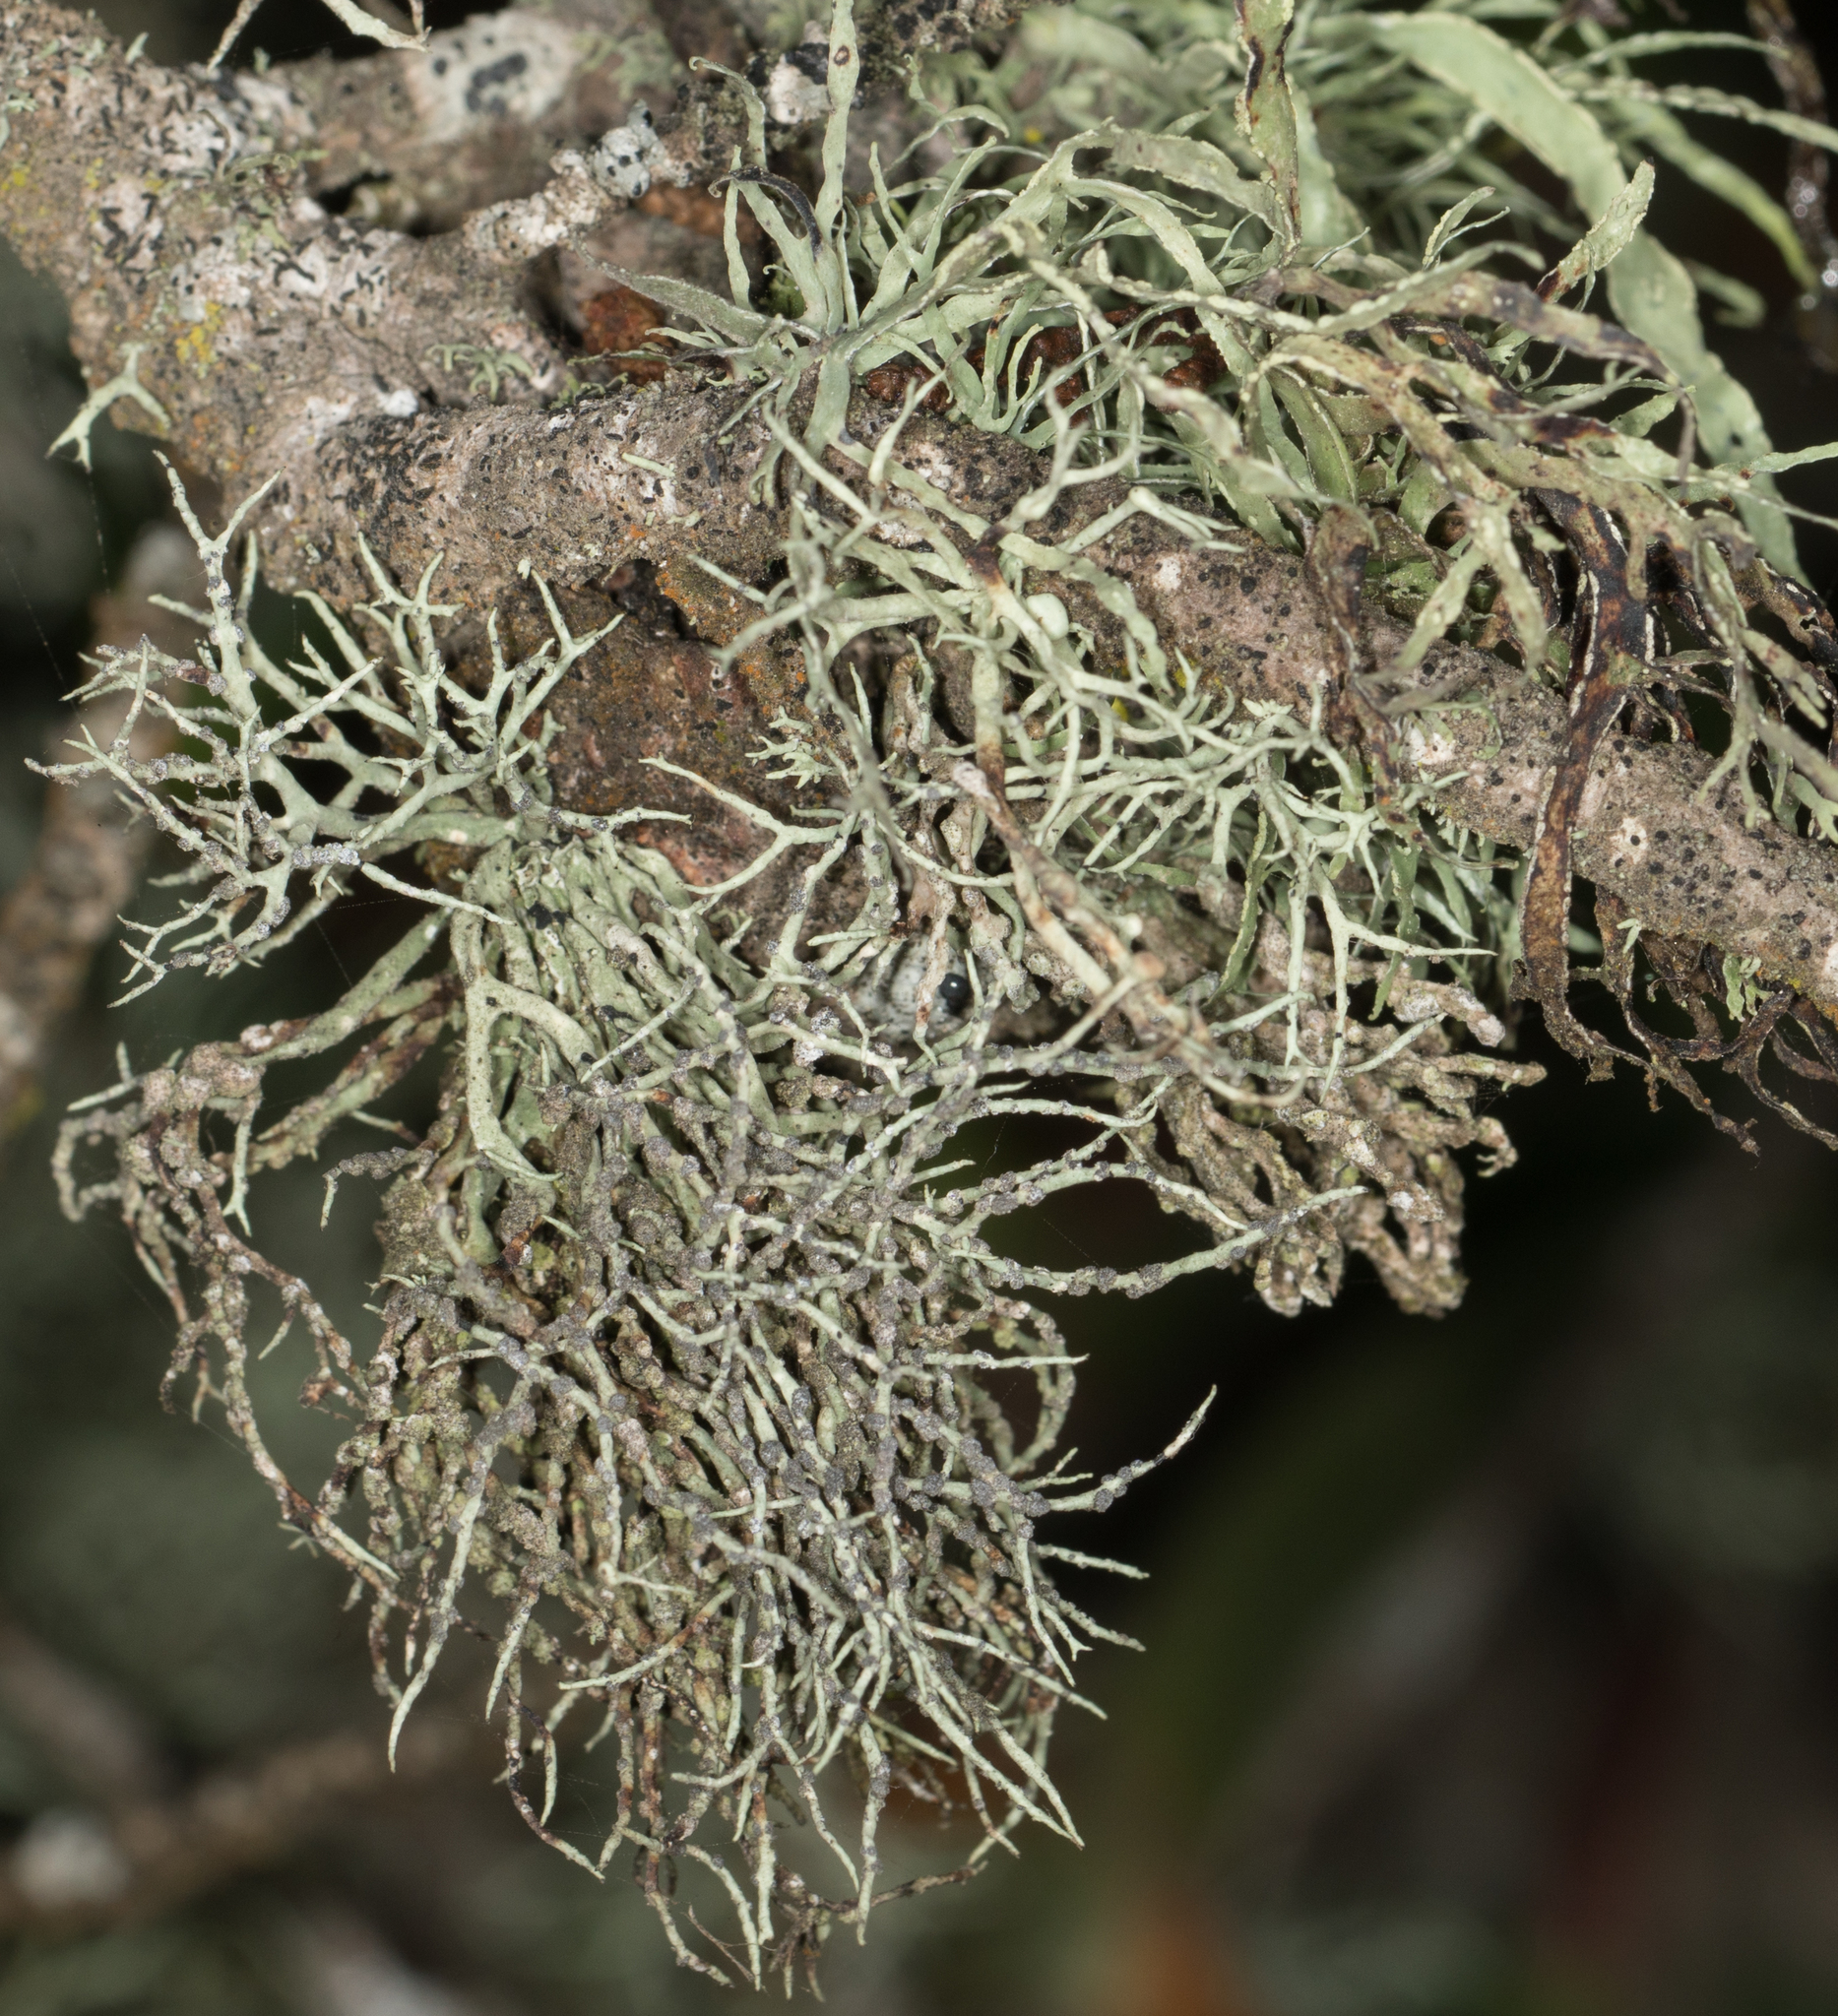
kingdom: Fungi
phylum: Ascomycota
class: Lecanoromycetes
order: Lecanorales
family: Ramalinaceae
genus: Niebla
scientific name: Niebla cephalota
